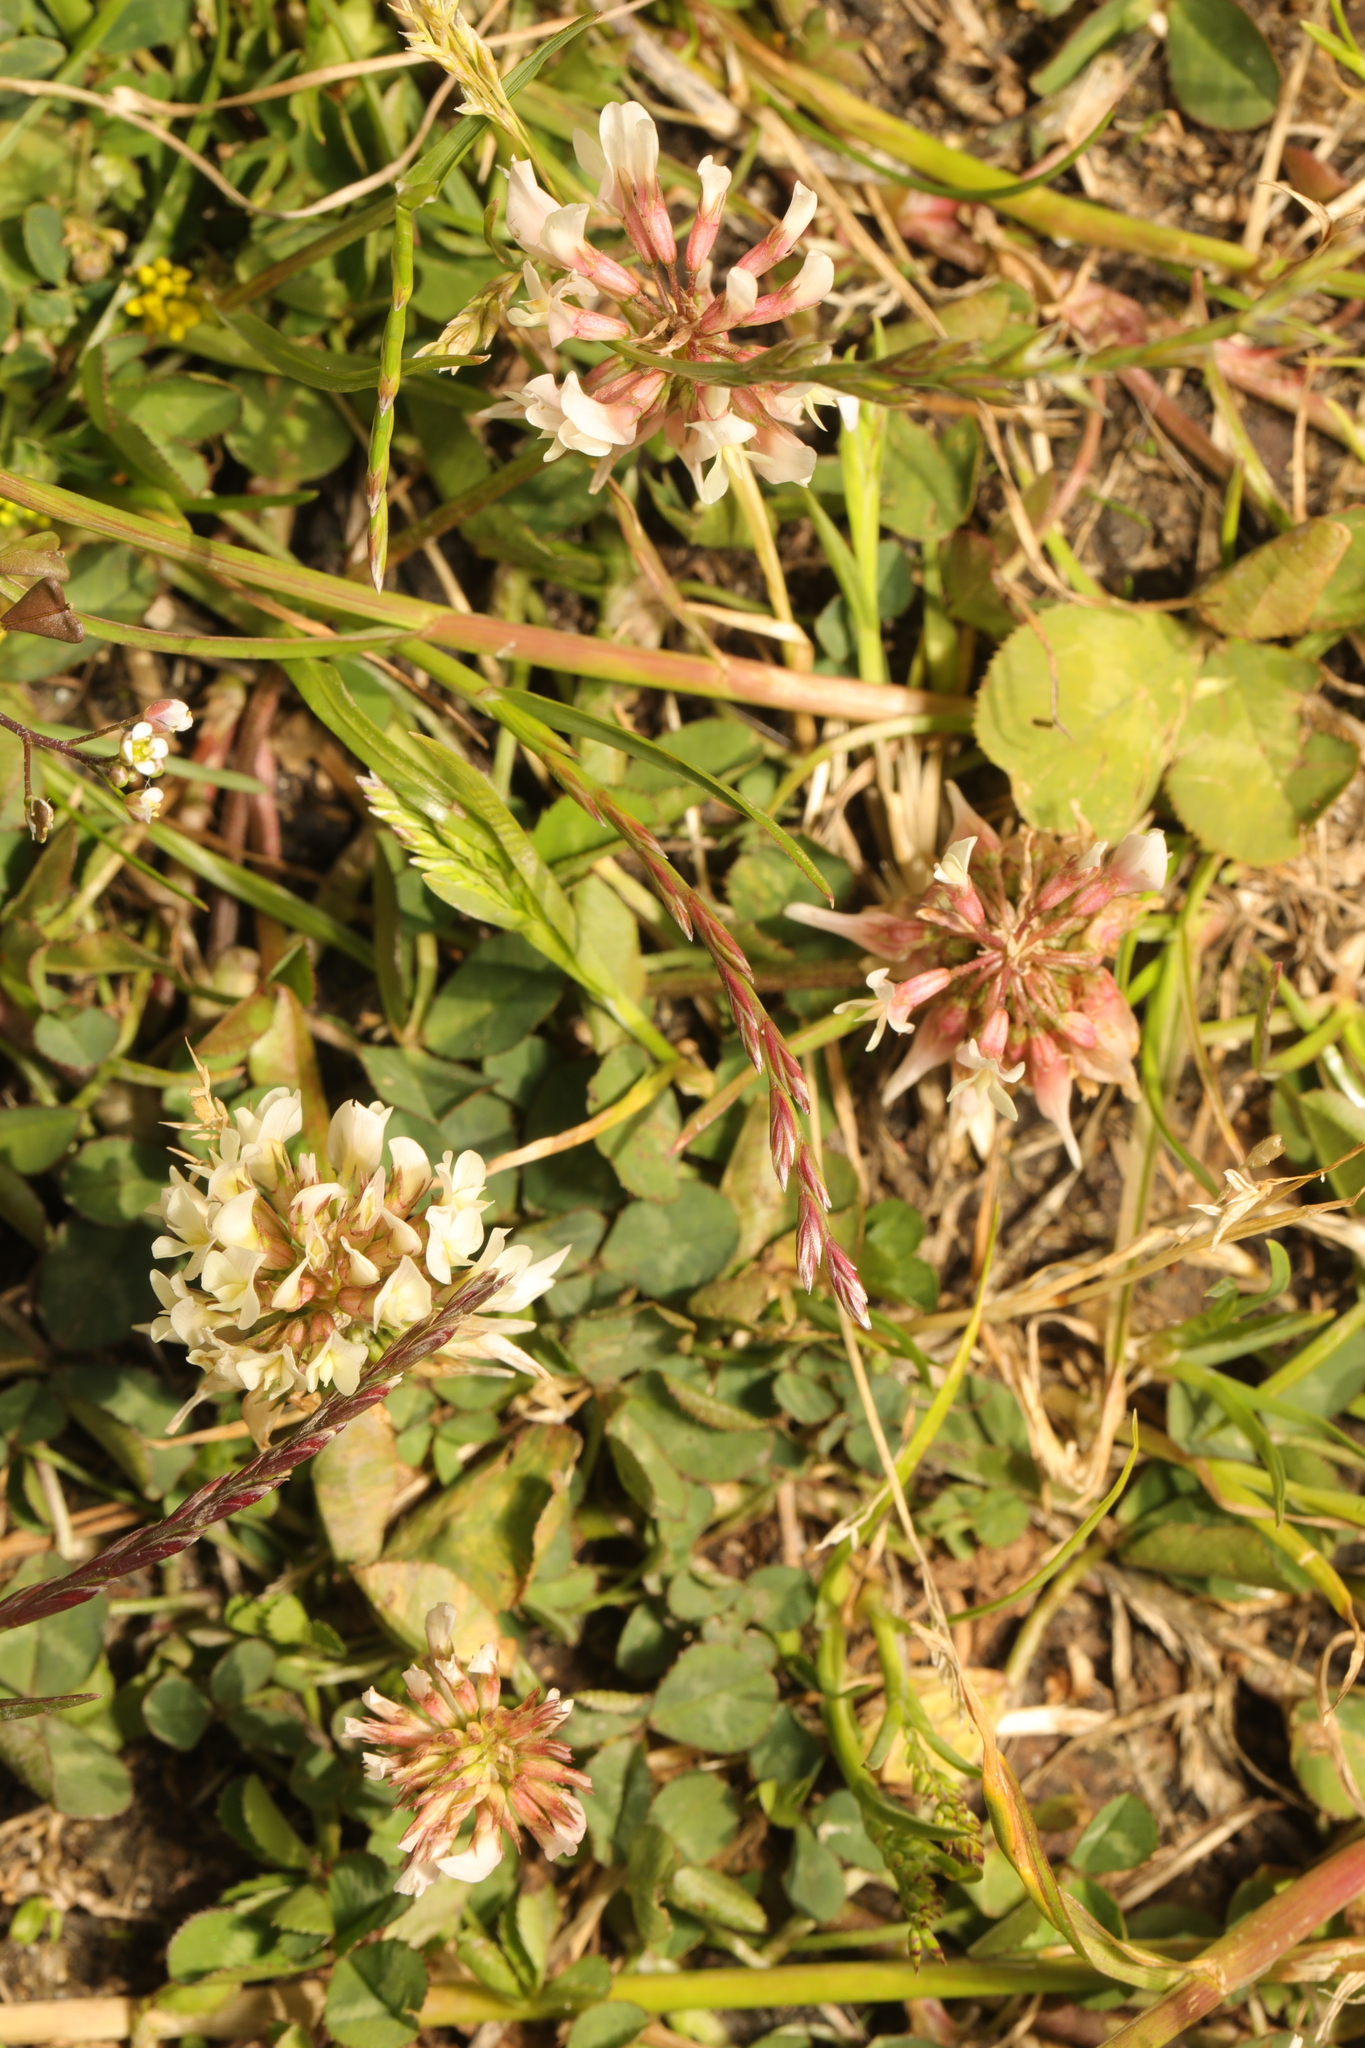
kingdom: Plantae
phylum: Tracheophyta
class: Magnoliopsida
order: Fabales
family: Fabaceae
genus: Trifolium
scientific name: Trifolium repens
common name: White clover
